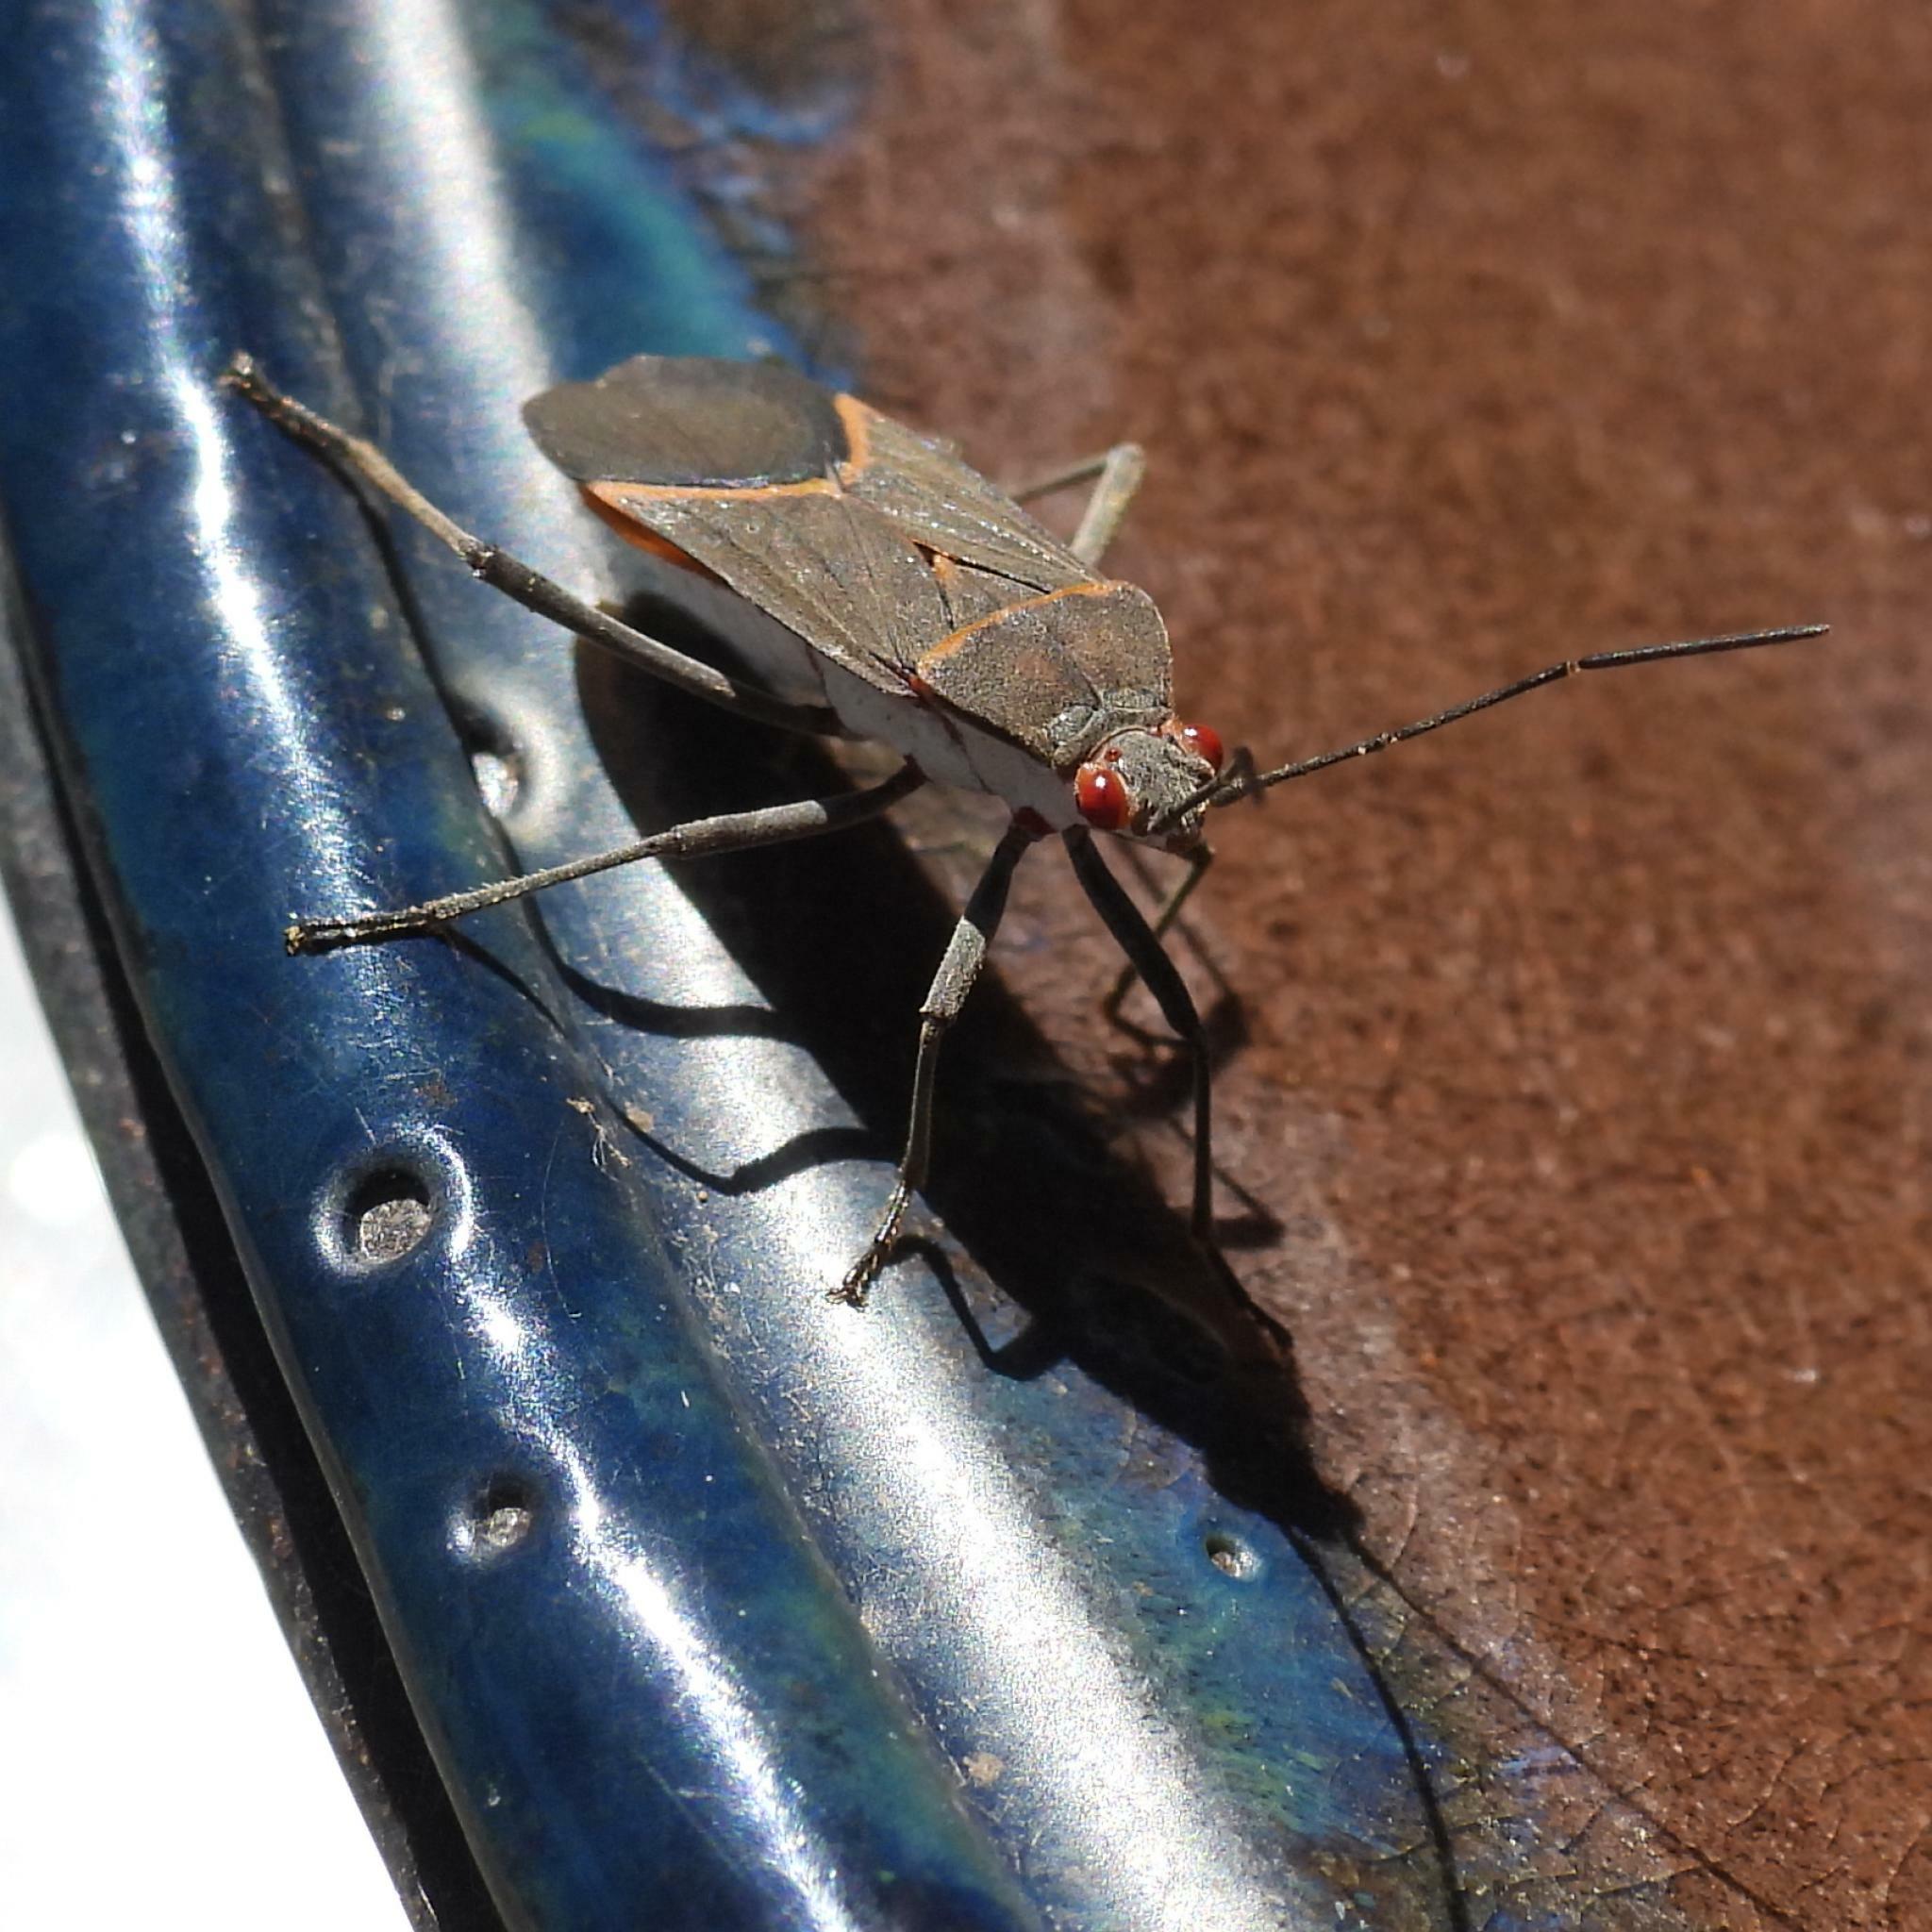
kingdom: Animalia
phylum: Arthropoda
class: Insecta
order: Hemiptera
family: Rhopalidae
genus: Leptocoris
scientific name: Leptocoris amictus
